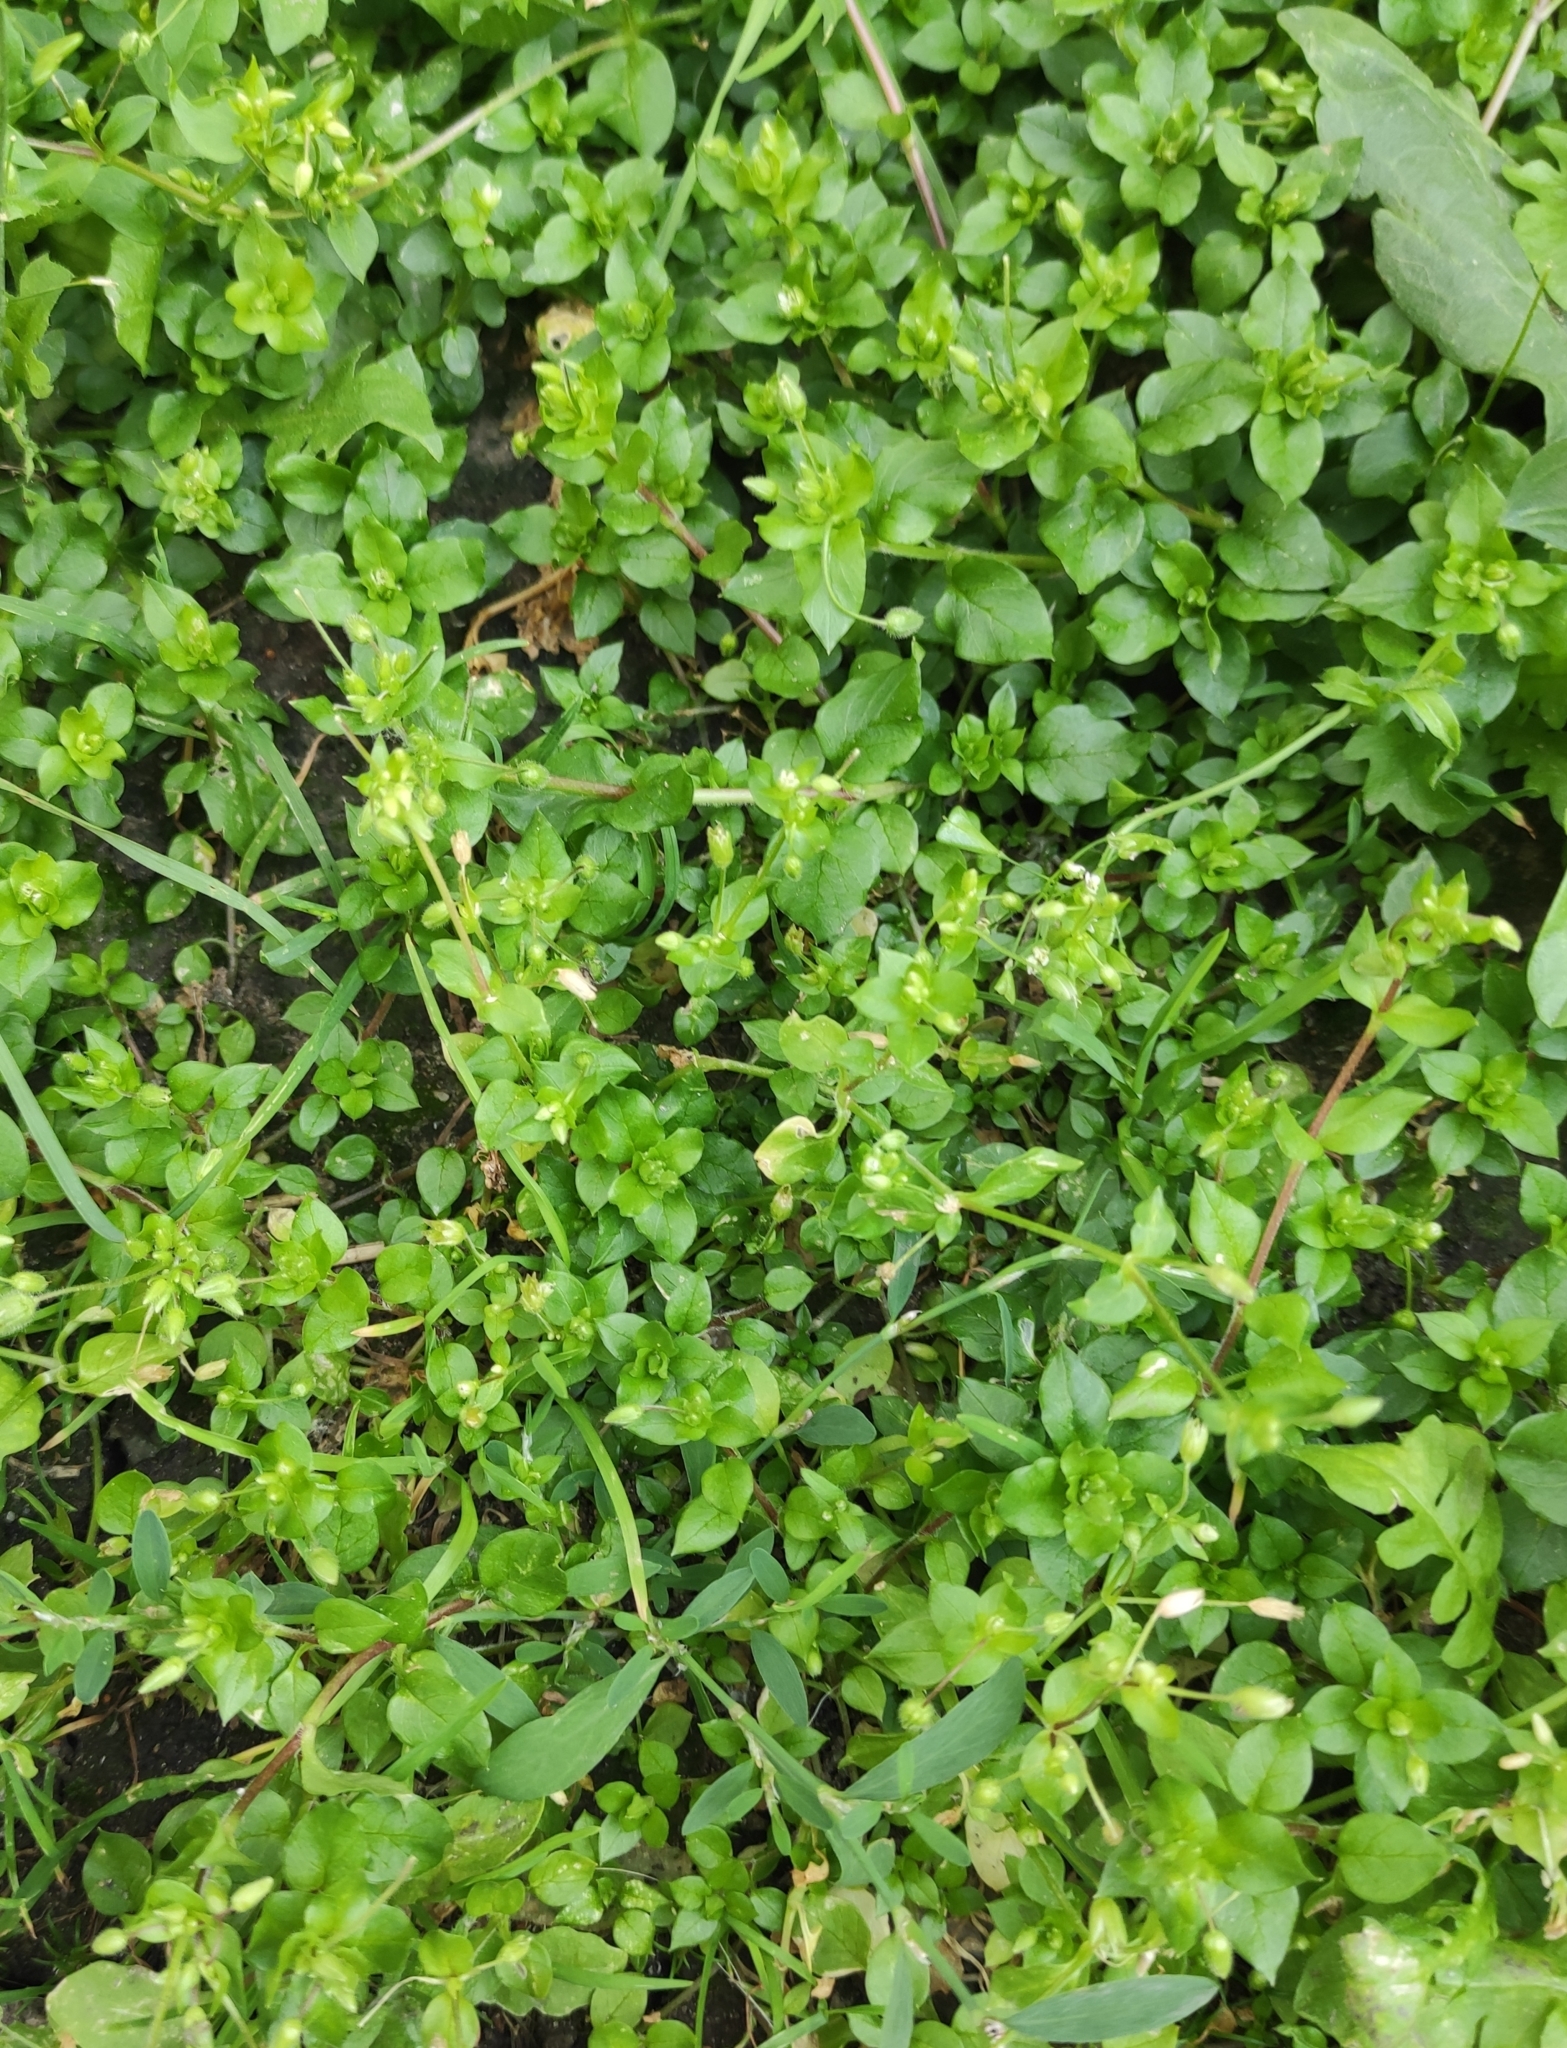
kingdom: Plantae
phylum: Tracheophyta
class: Magnoliopsida
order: Caryophyllales
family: Caryophyllaceae
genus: Stellaria
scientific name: Stellaria media
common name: Common chickweed
